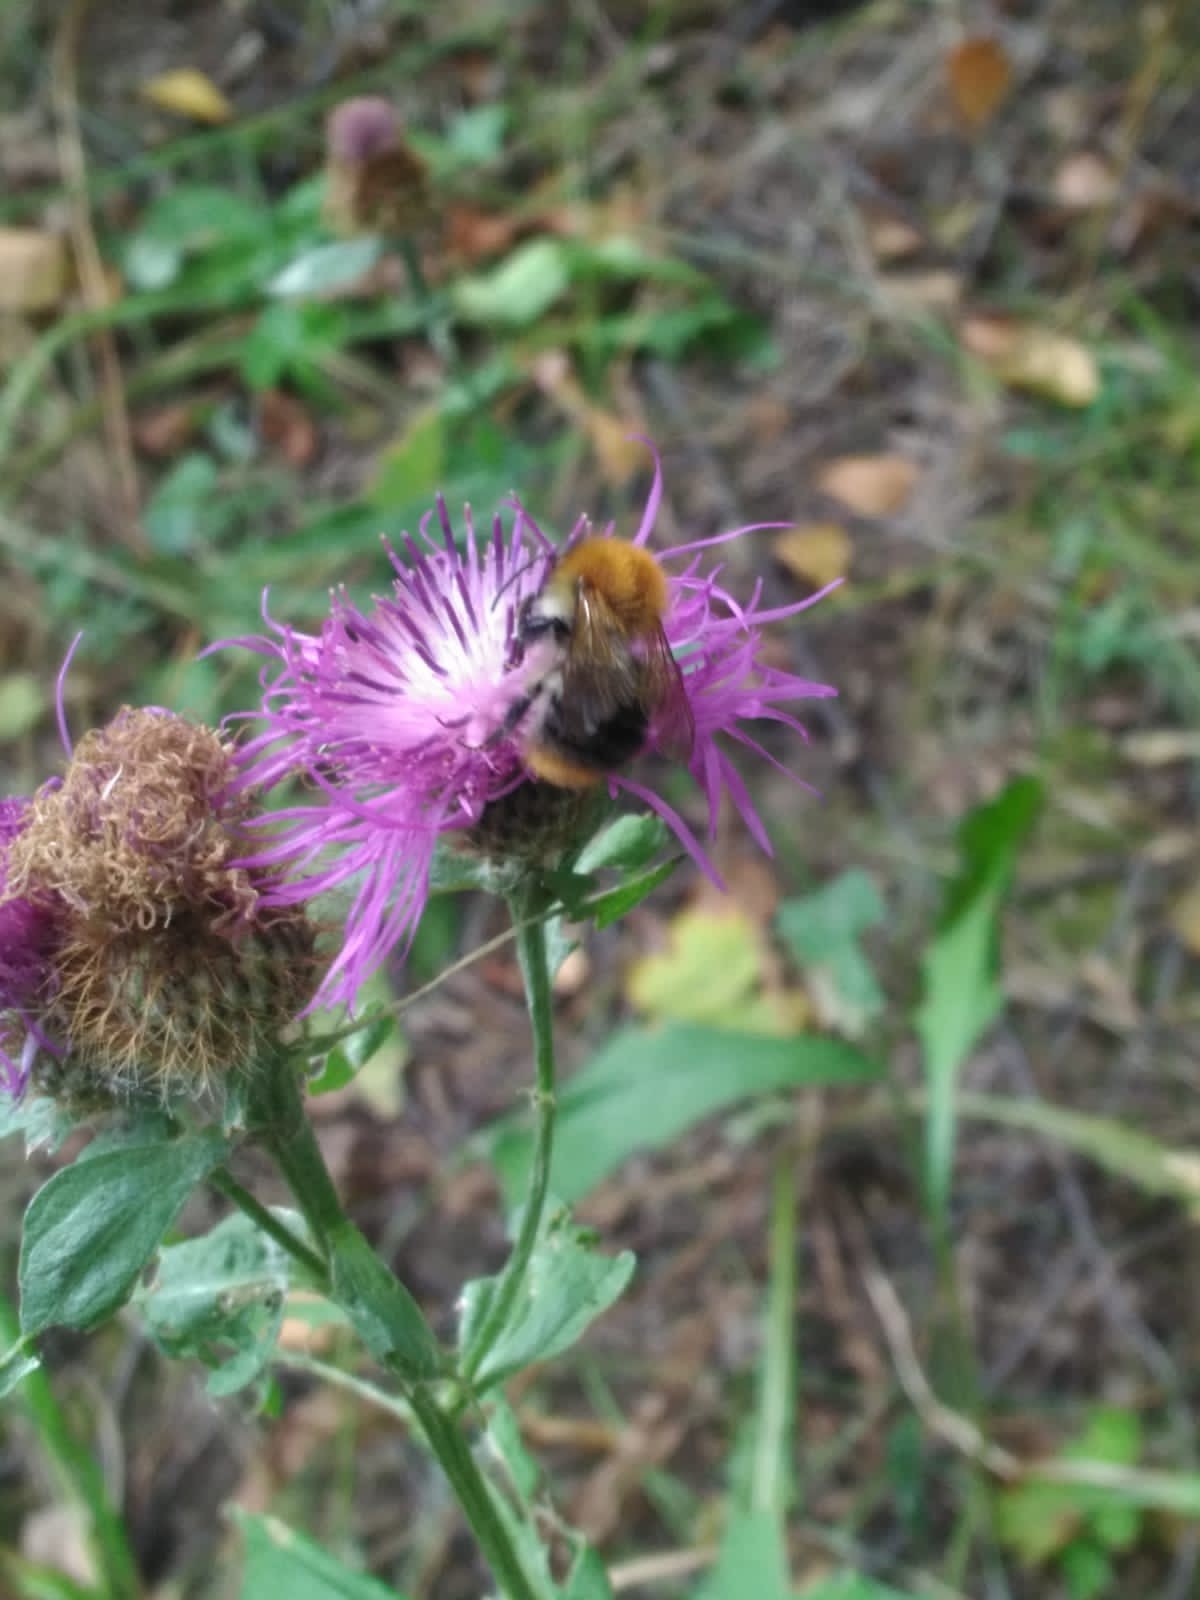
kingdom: Animalia
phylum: Arthropoda
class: Insecta
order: Hymenoptera
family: Apidae
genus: Bombus
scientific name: Bombus pascuorum
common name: Common carder bee
